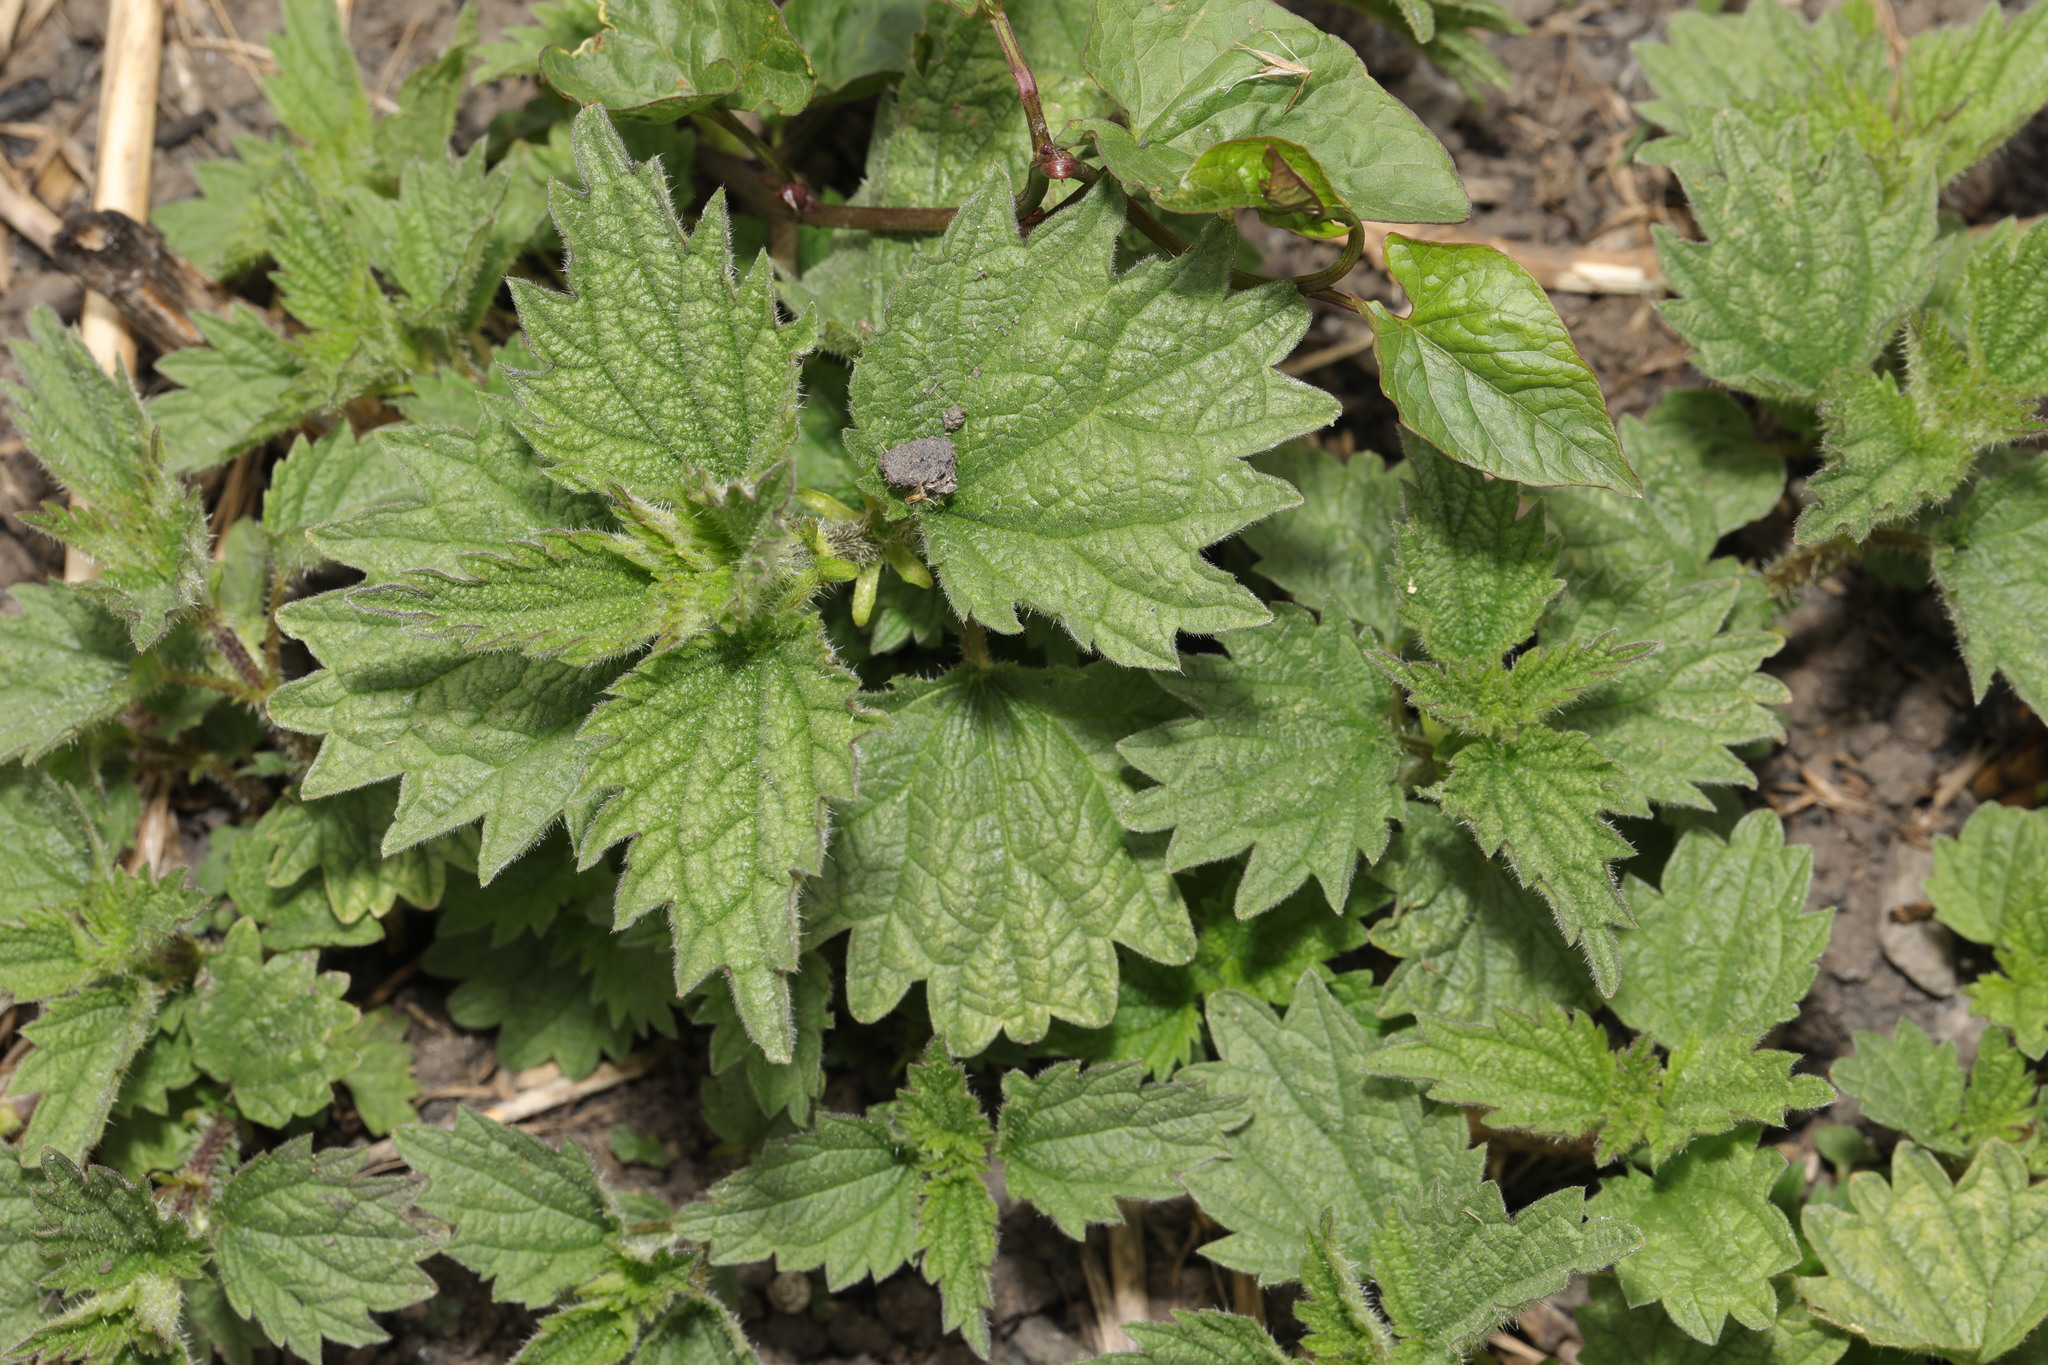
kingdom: Plantae
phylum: Tracheophyta
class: Magnoliopsida
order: Rosales
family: Urticaceae
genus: Urtica
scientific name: Urtica dioica
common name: Common nettle
